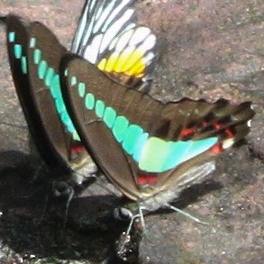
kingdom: Fungi
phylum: Ascomycota
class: Sordariomycetes
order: Microascales
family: Microascaceae
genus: Graphium
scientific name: Graphium sarpedon
